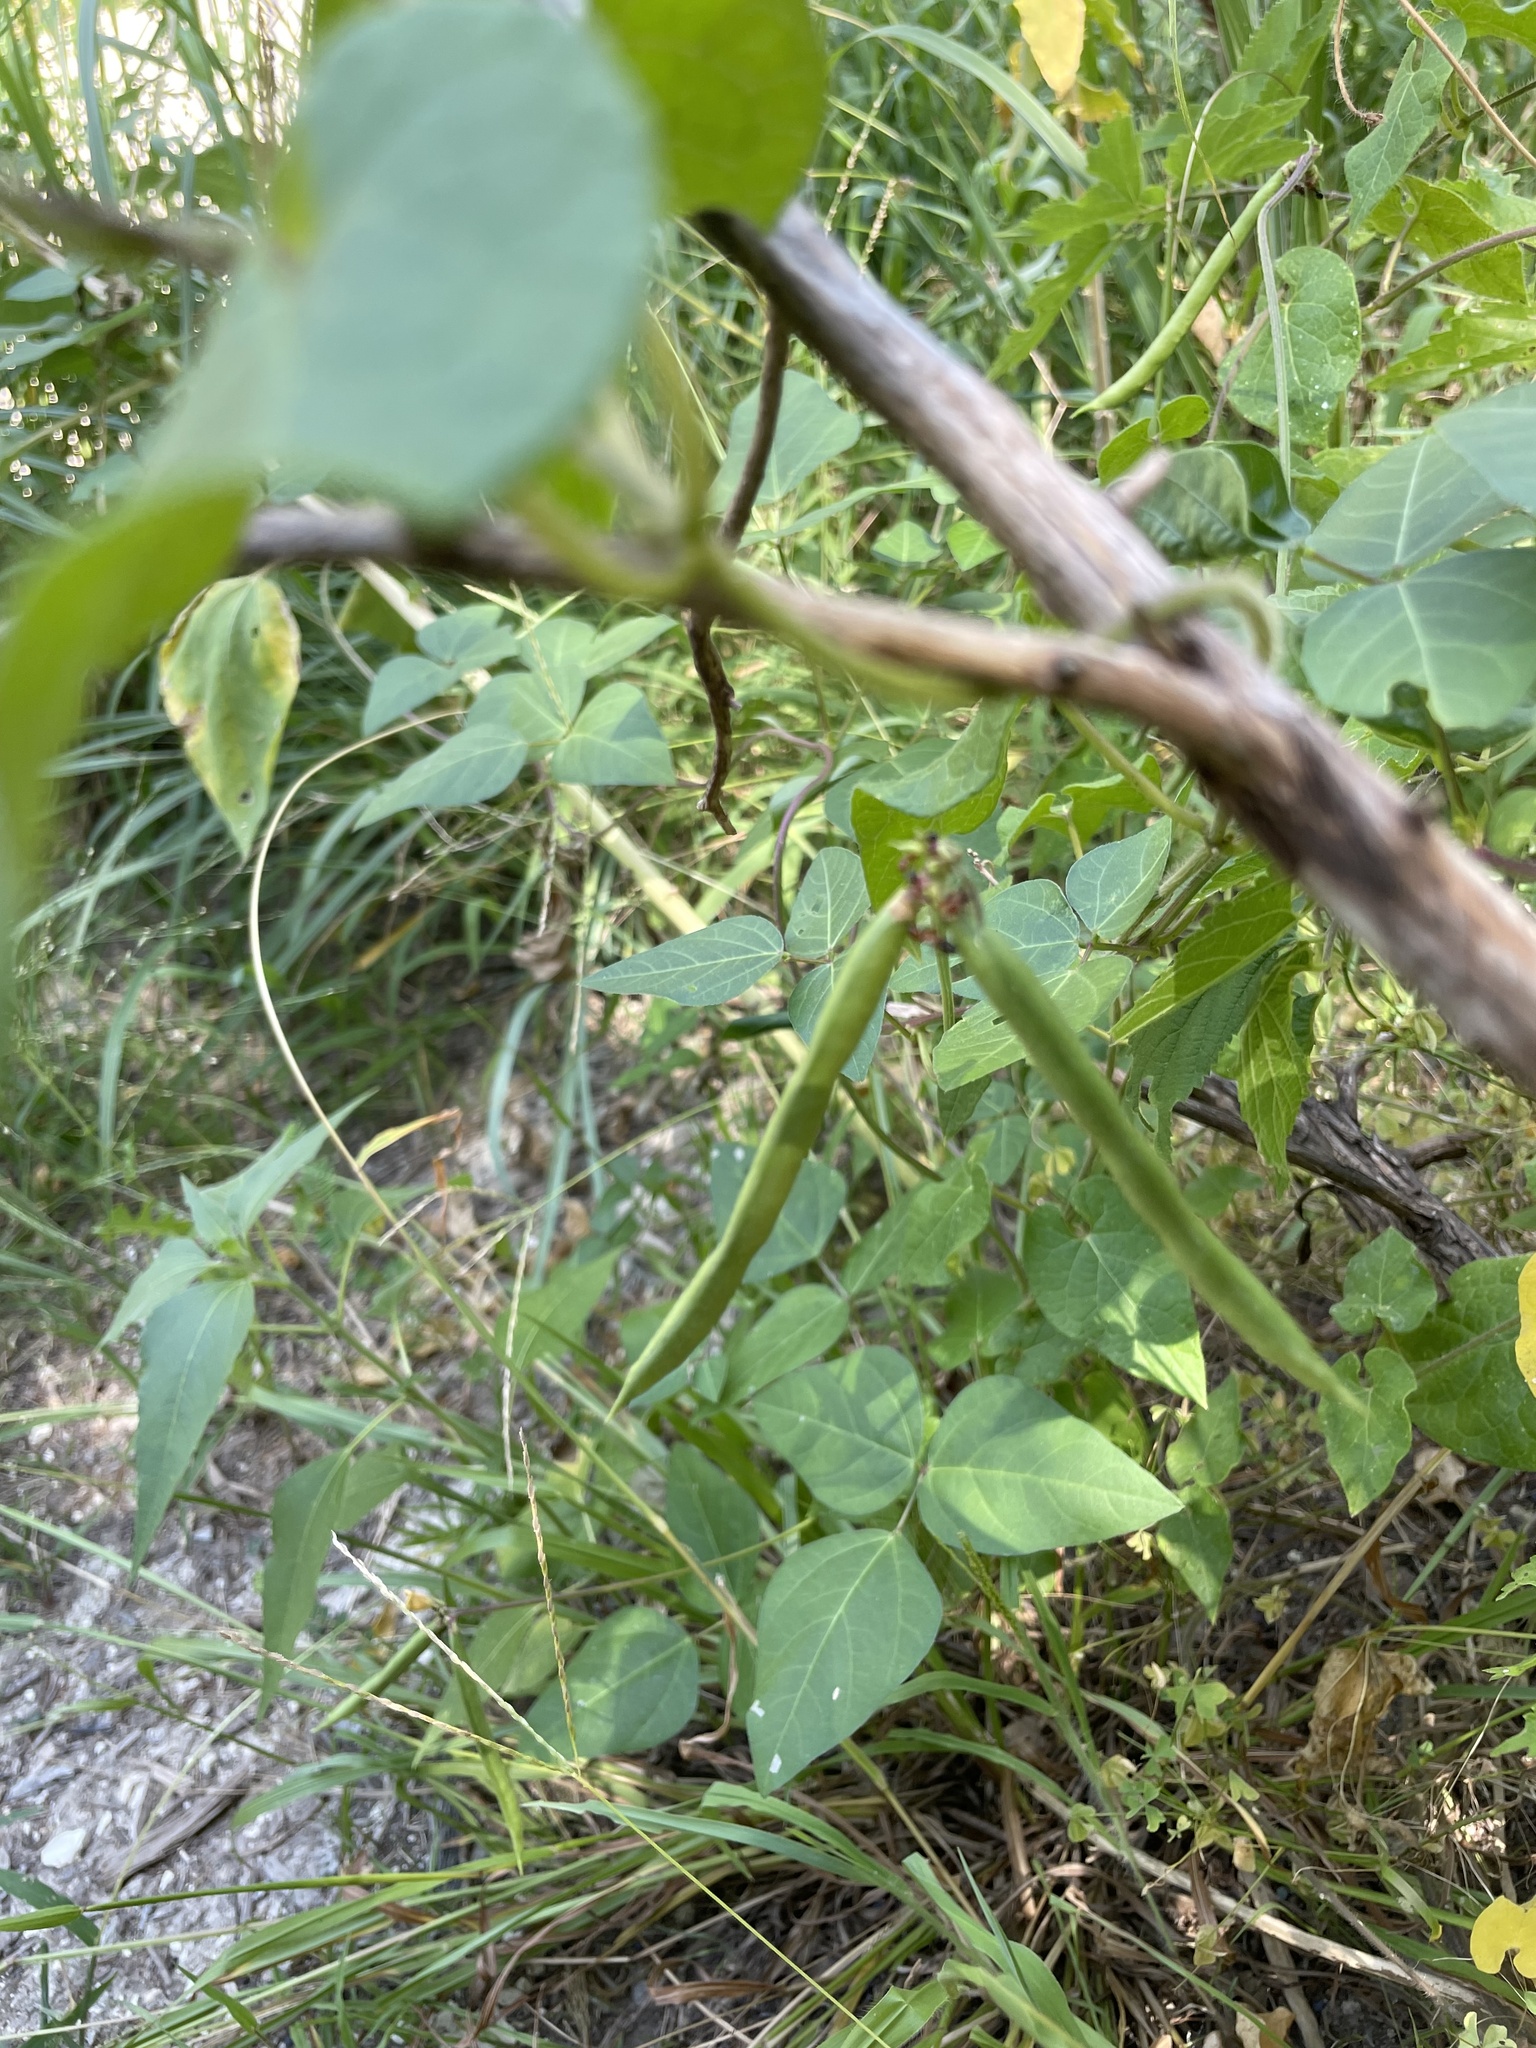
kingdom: Plantae
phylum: Tracheophyta
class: Magnoliopsida
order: Fabales
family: Fabaceae
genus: Strophostyles
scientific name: Strophostyles helvola
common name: Trailing wild bean
